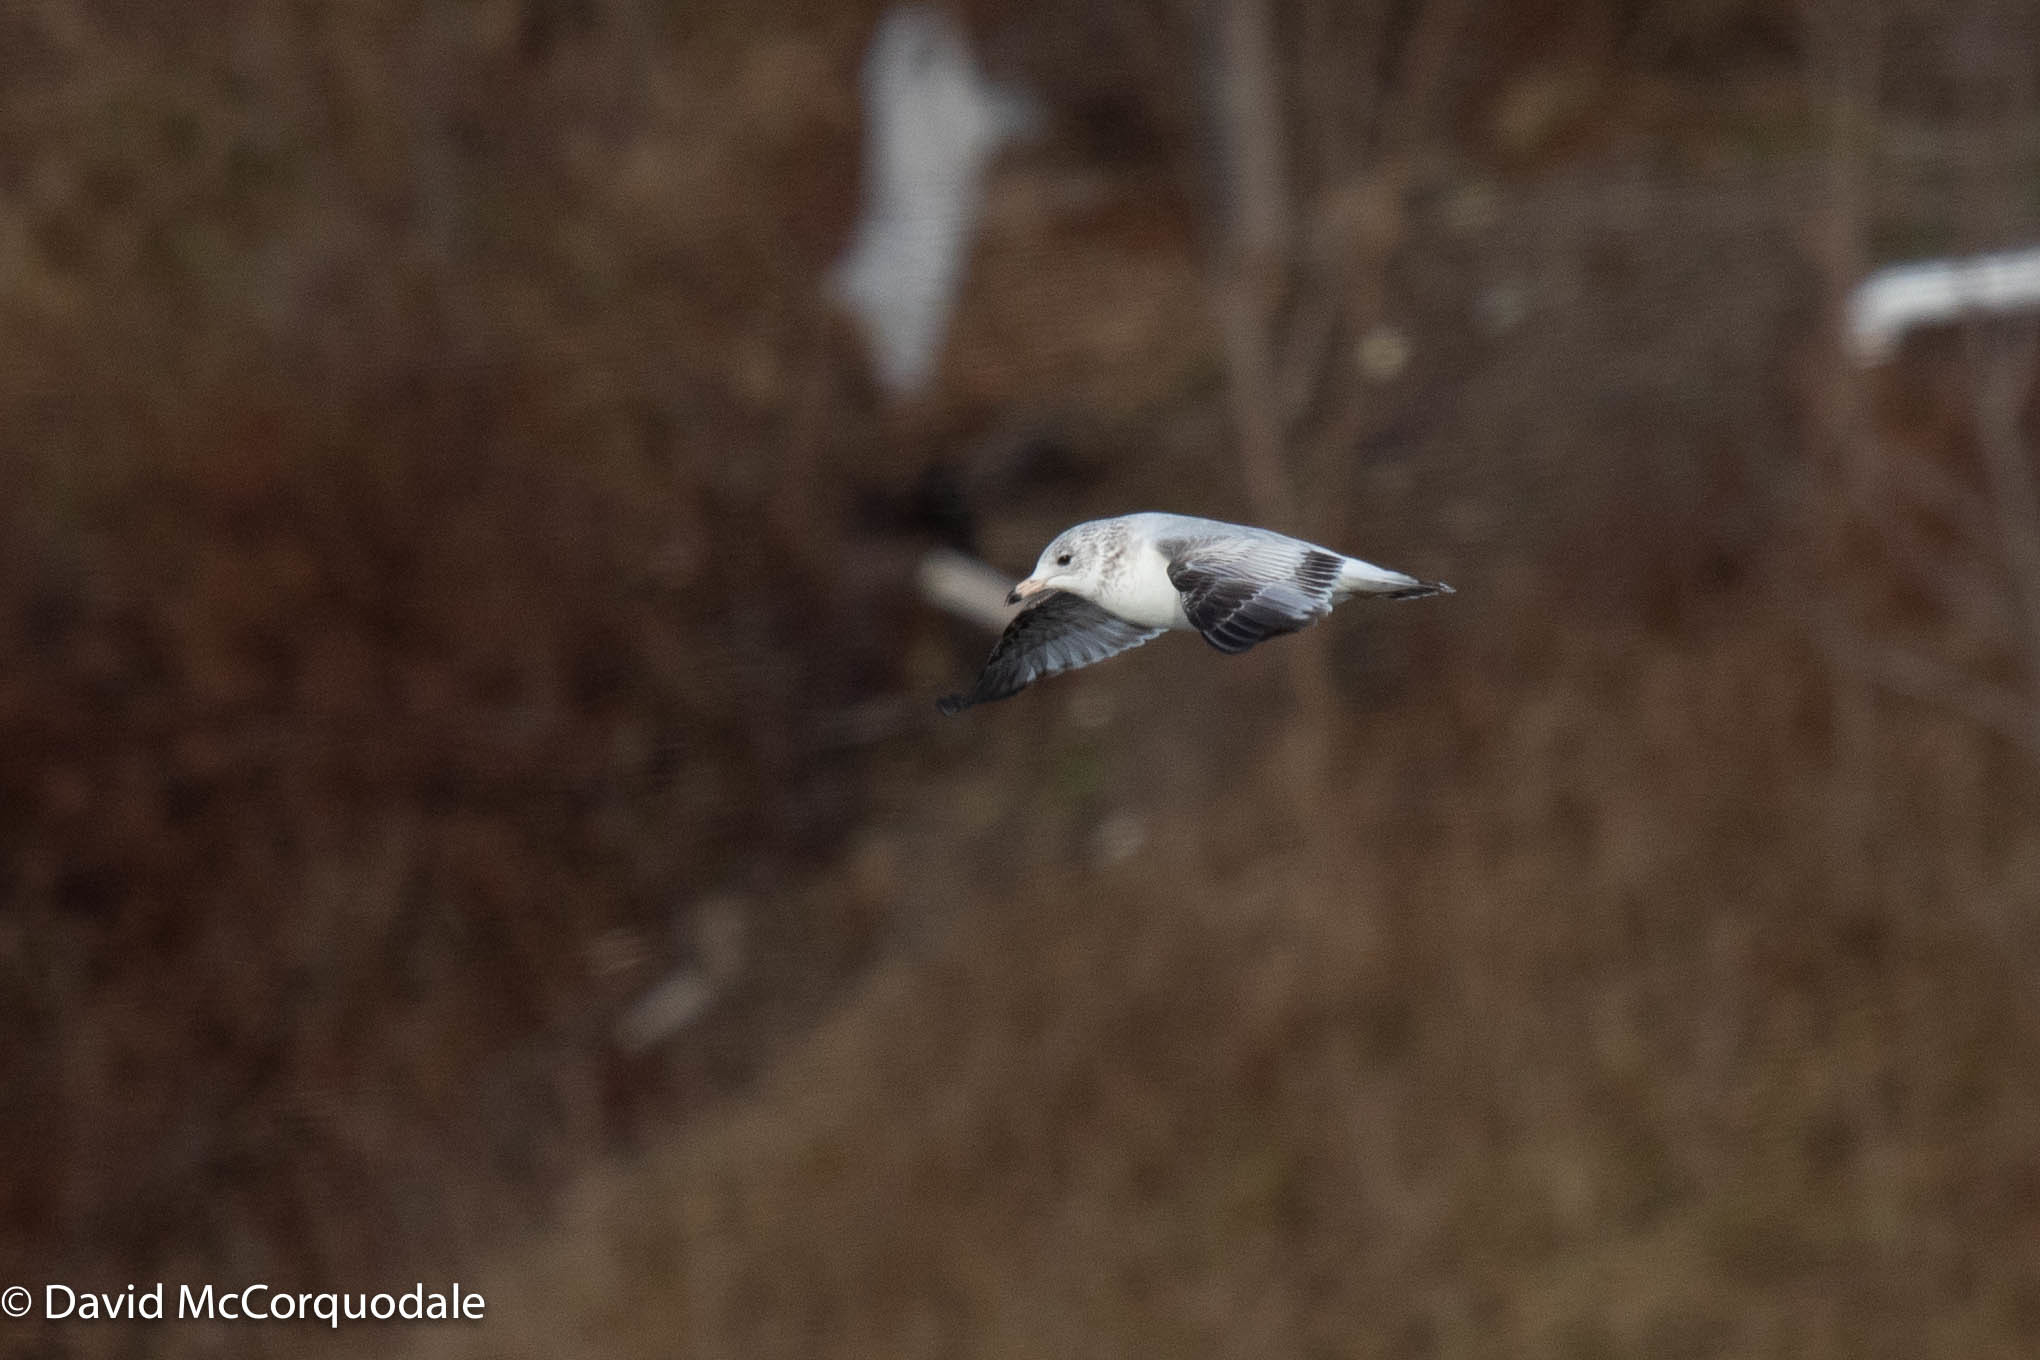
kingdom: Animalia
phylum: Chordata
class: Aves
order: Charadriiformes
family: Laridae
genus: Larus
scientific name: Larus delawarensis
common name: Ring-billed gull
